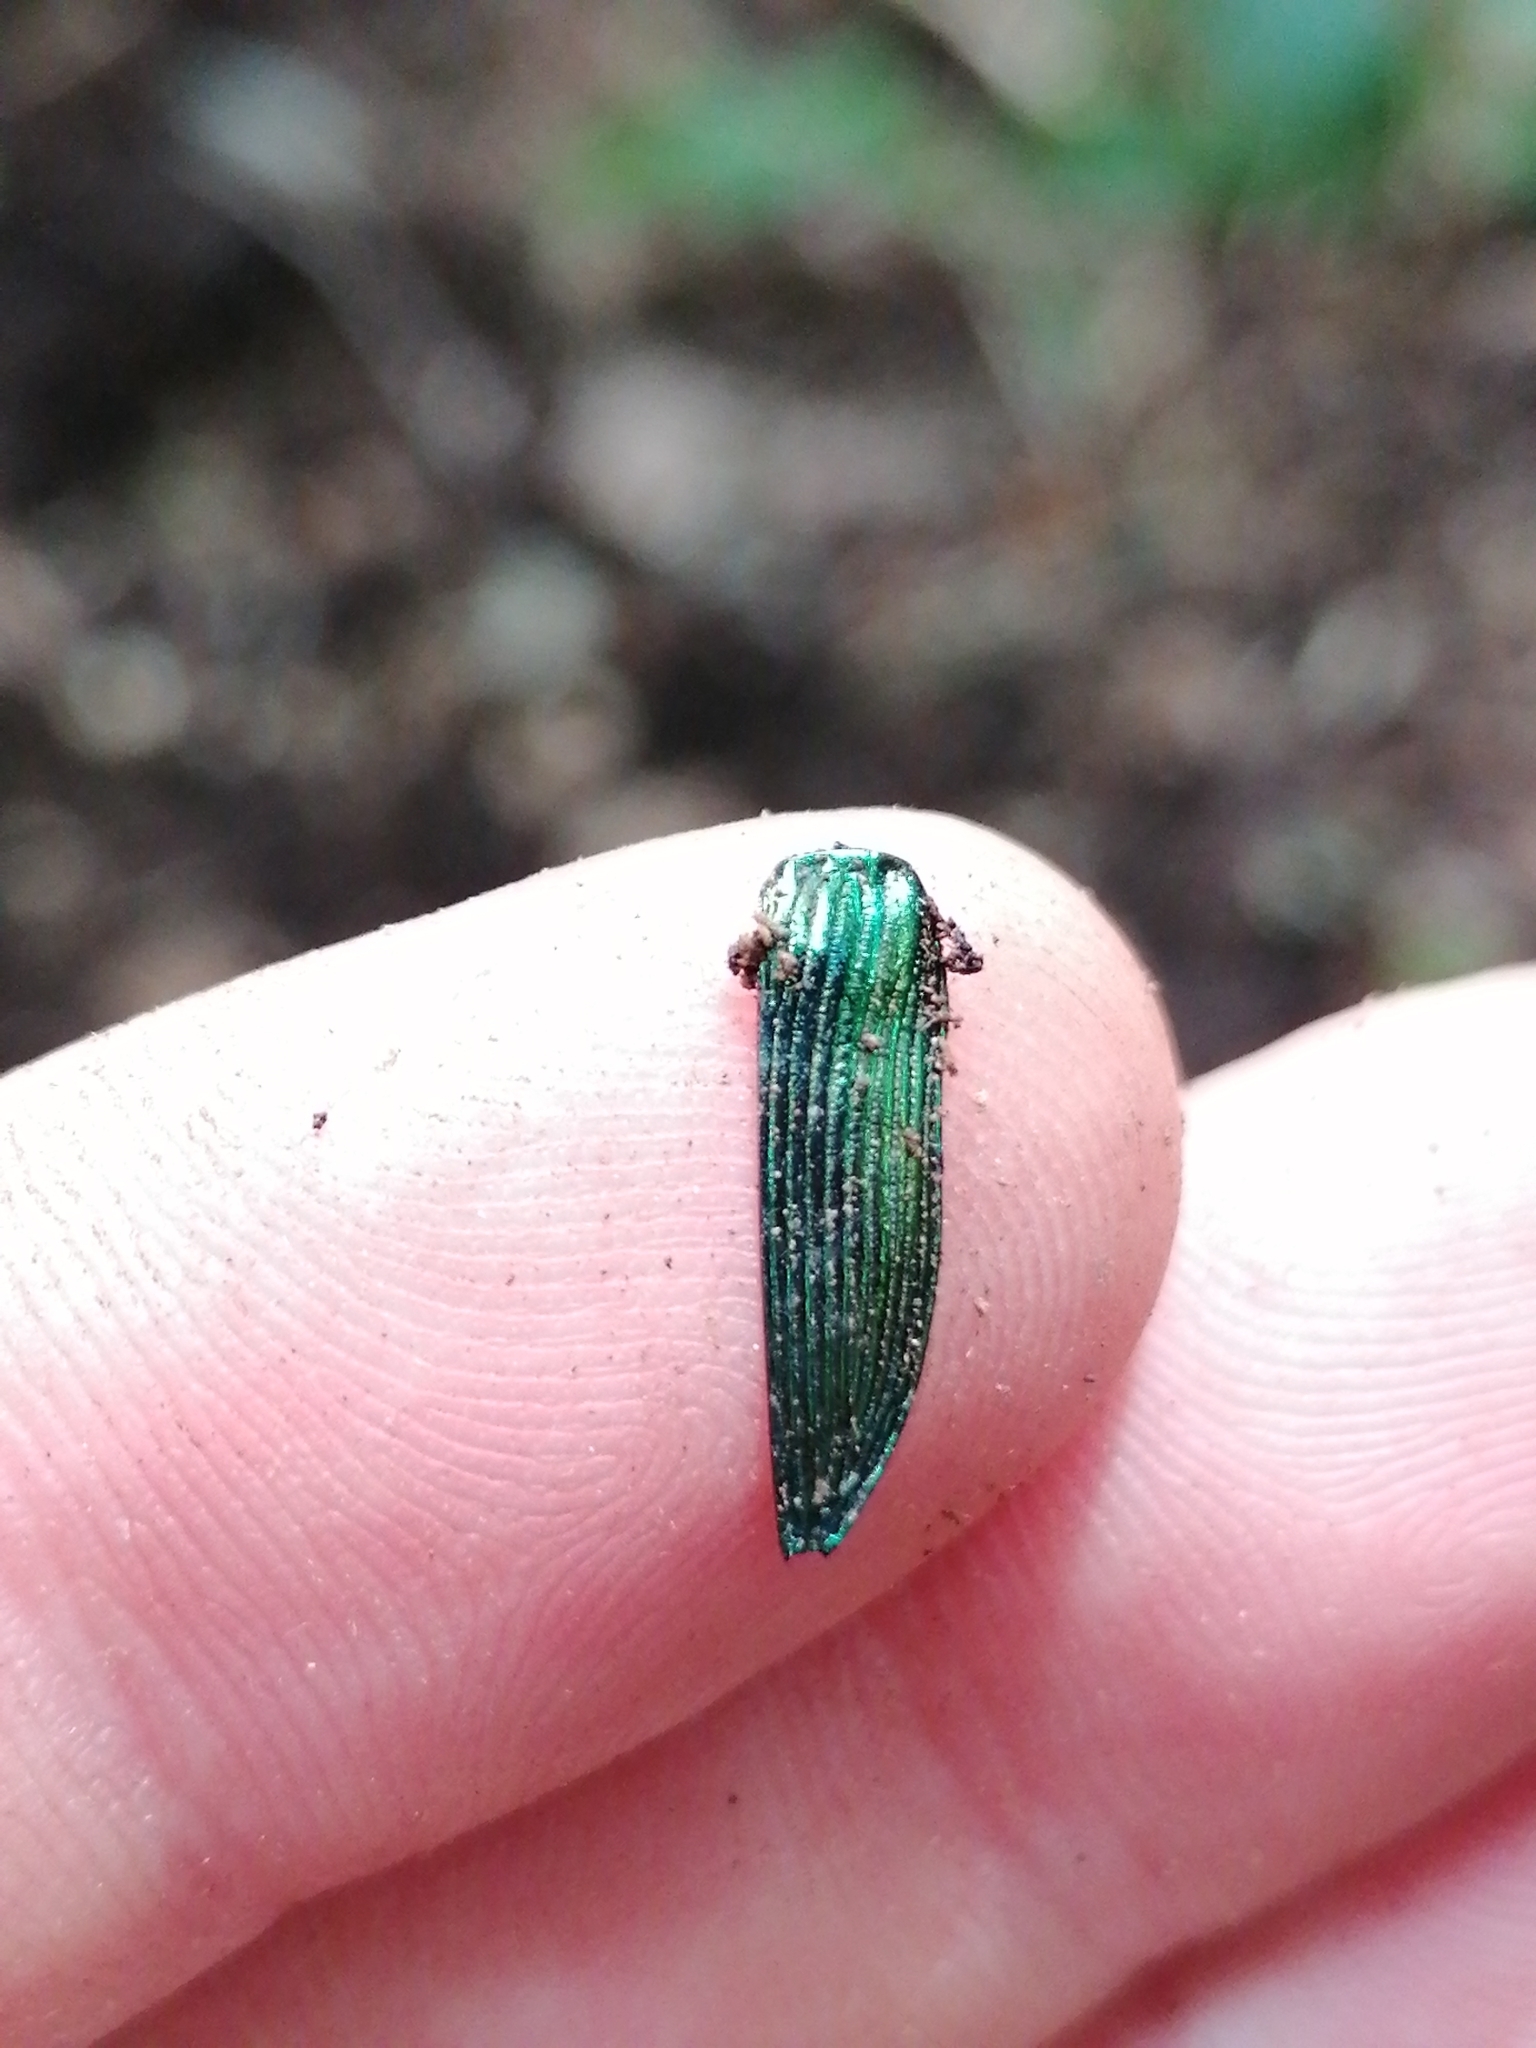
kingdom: Animalia
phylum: Arthropoda
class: Insecta
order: Coleoptera
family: Buprestidae
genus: Buprestis
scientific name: Buprestis rustica
